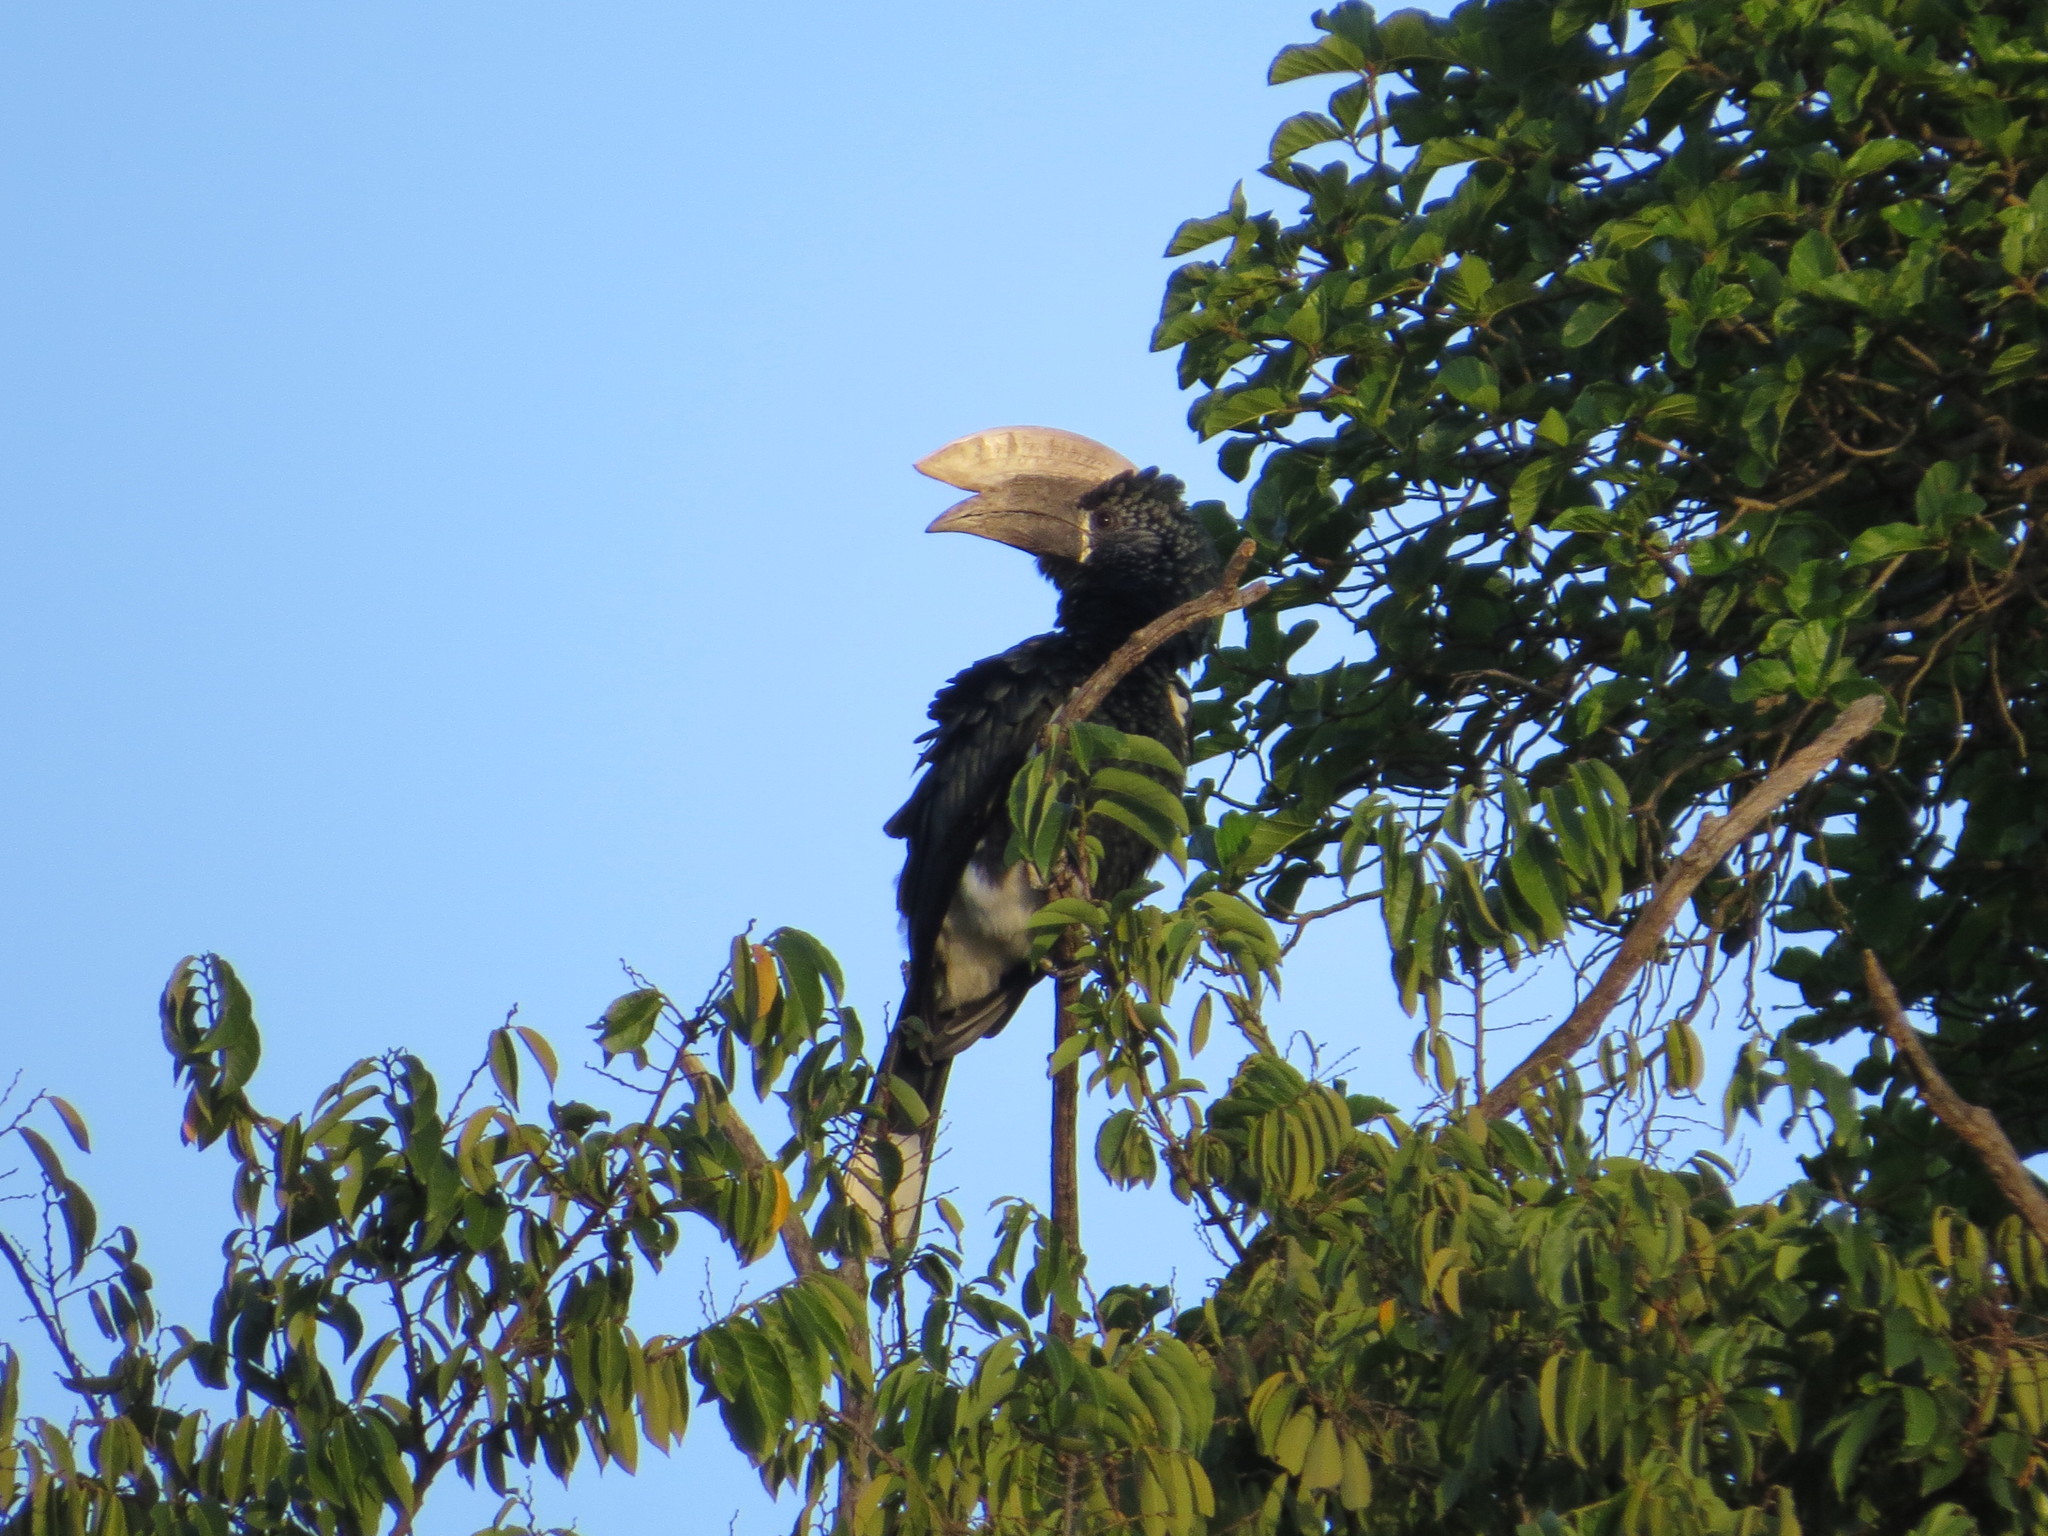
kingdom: Animalia
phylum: Chordata
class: Aves
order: Bucerotiformes
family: Bucerotidae
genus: Bycanistes
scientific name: Bycanistes brevis
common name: Silvery-cheeked hornbill
